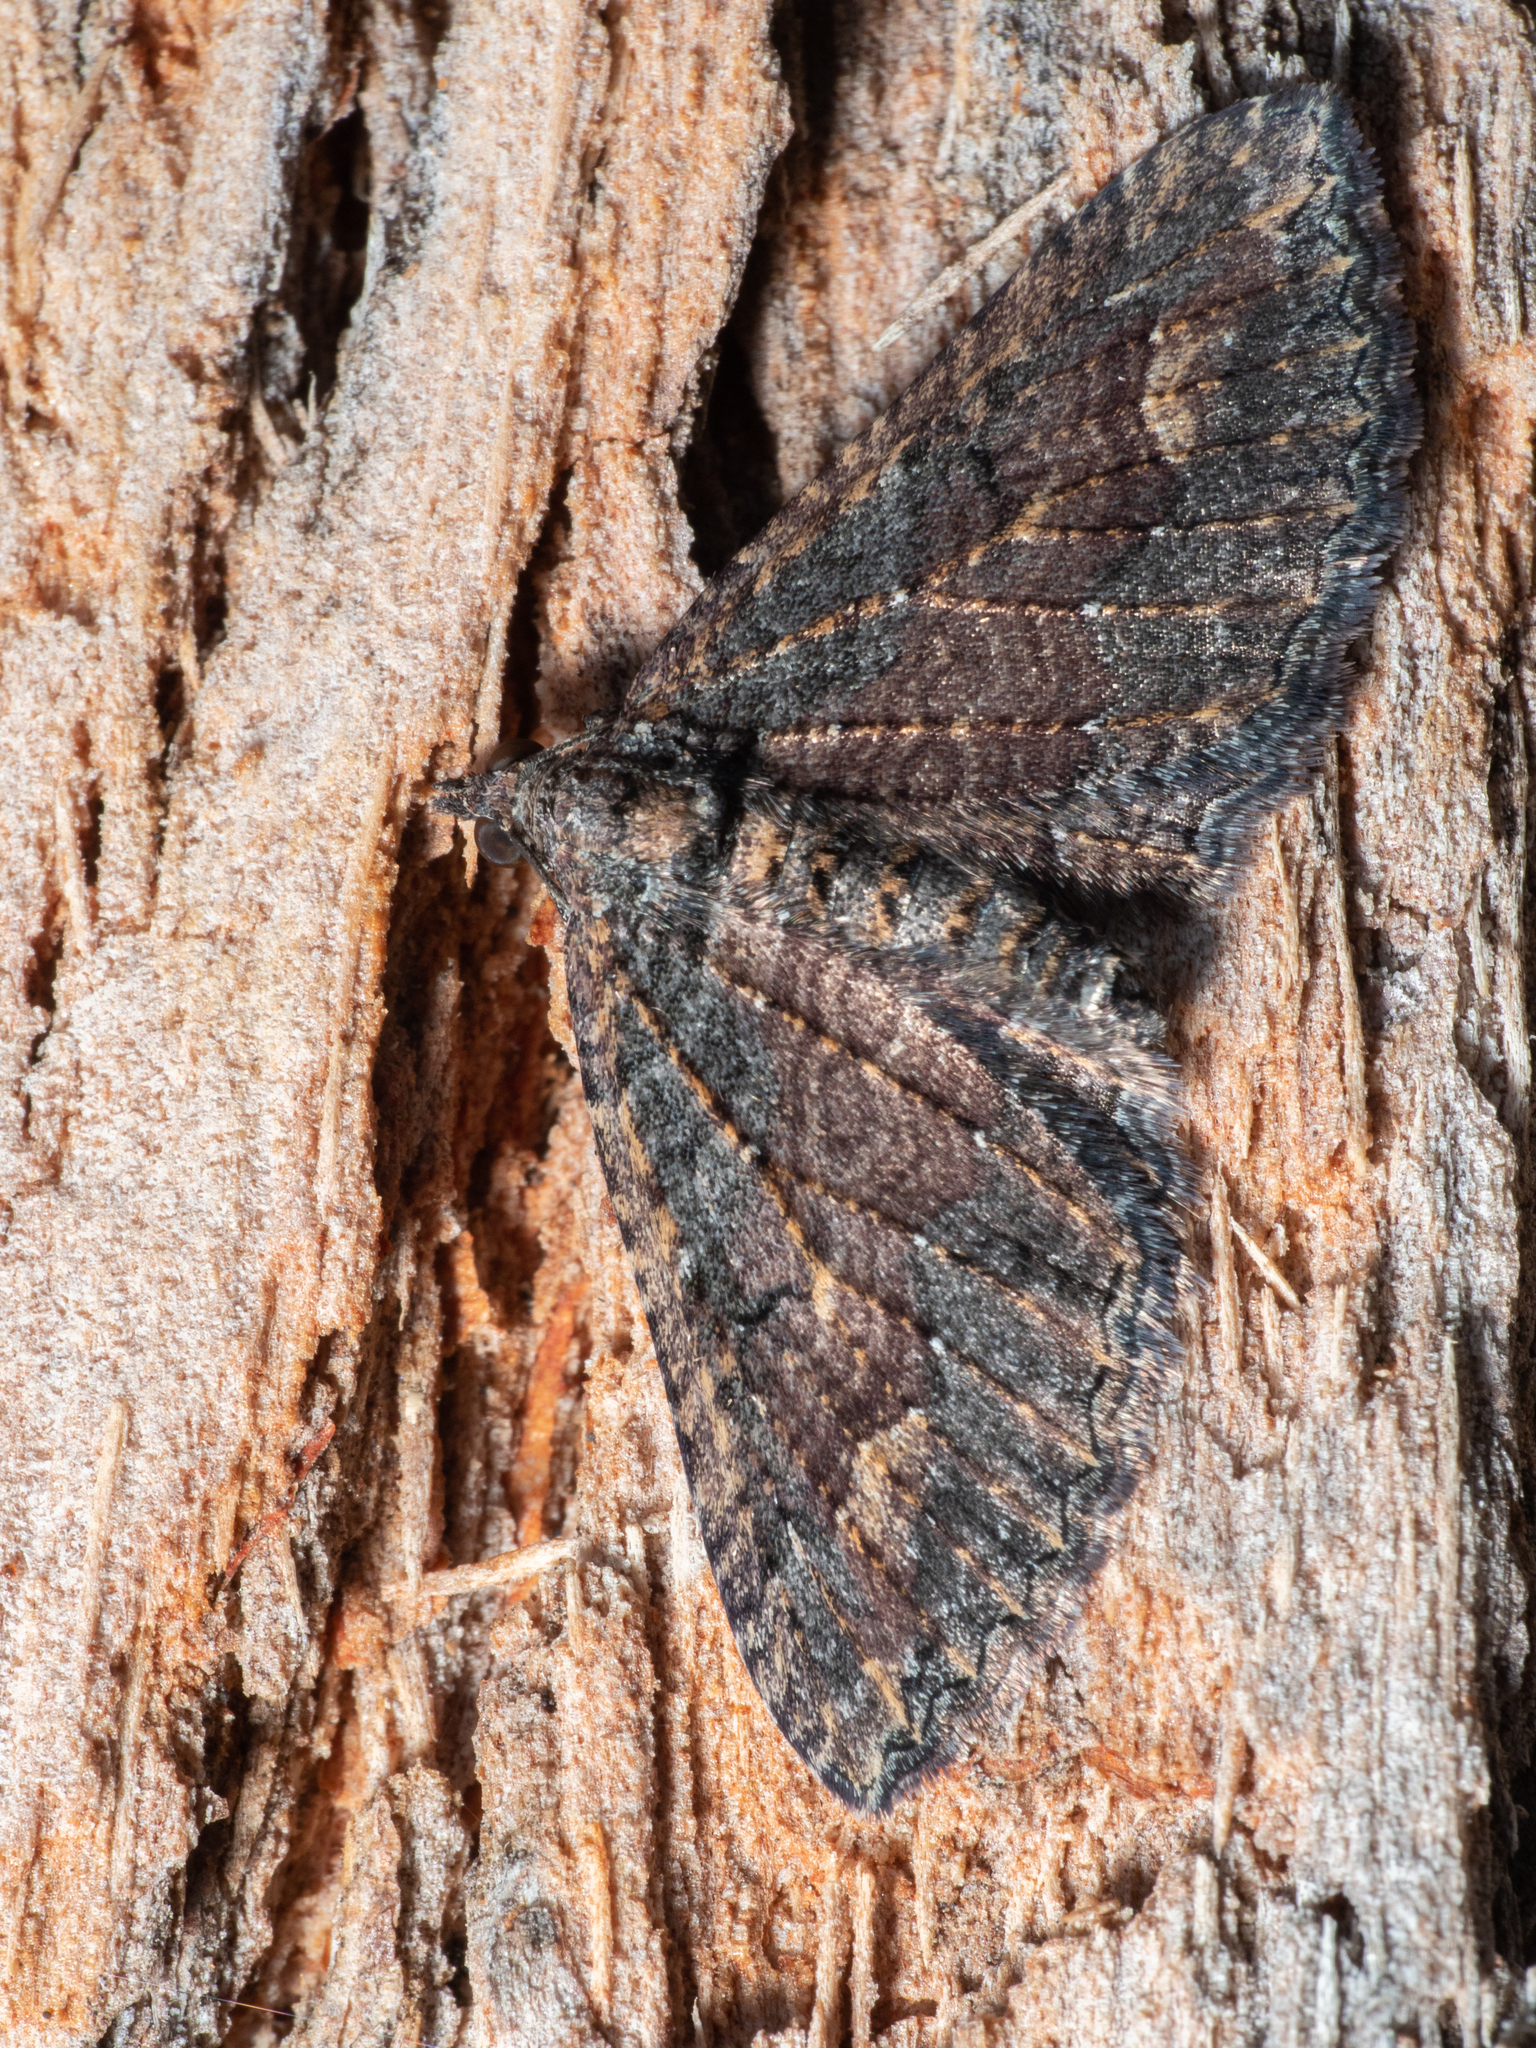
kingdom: Animalia
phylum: Arthropoda
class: Insecta
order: Lepidoptera
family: Geometridae
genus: Eupithecia
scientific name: Eupithecia Eucymatoge scotodes
